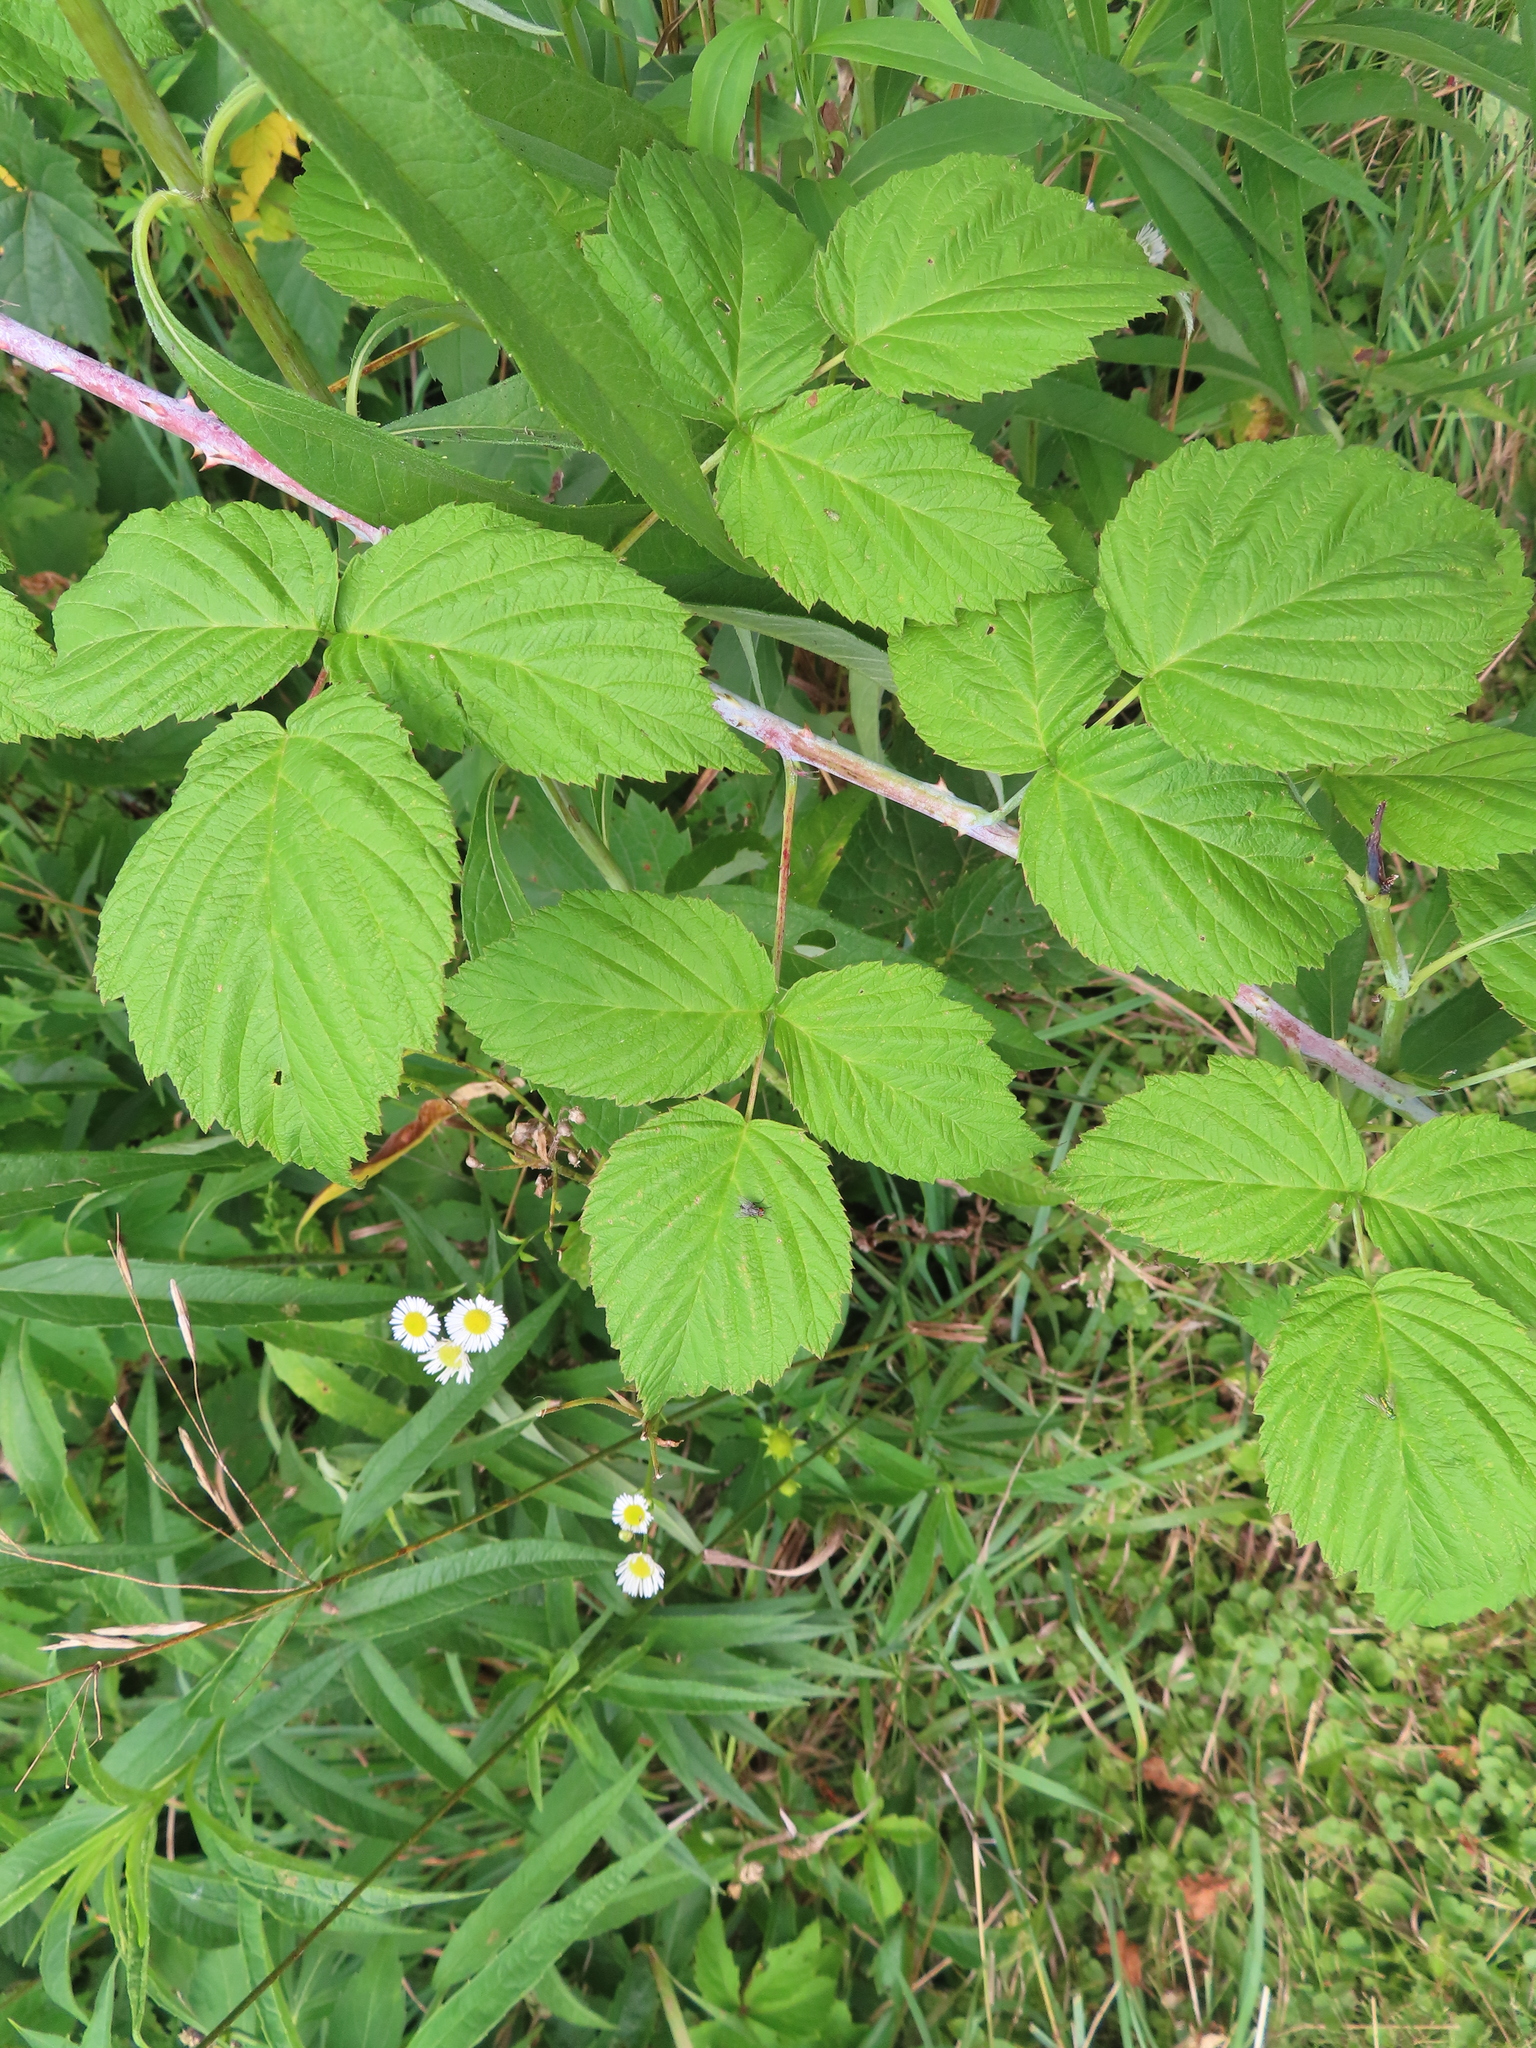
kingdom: Plantae
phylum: Tracheophyta
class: Magnoliopsida
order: Rosales
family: Rosaceae
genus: Rubus
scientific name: Rubus occidentalis
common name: Black raspberry
